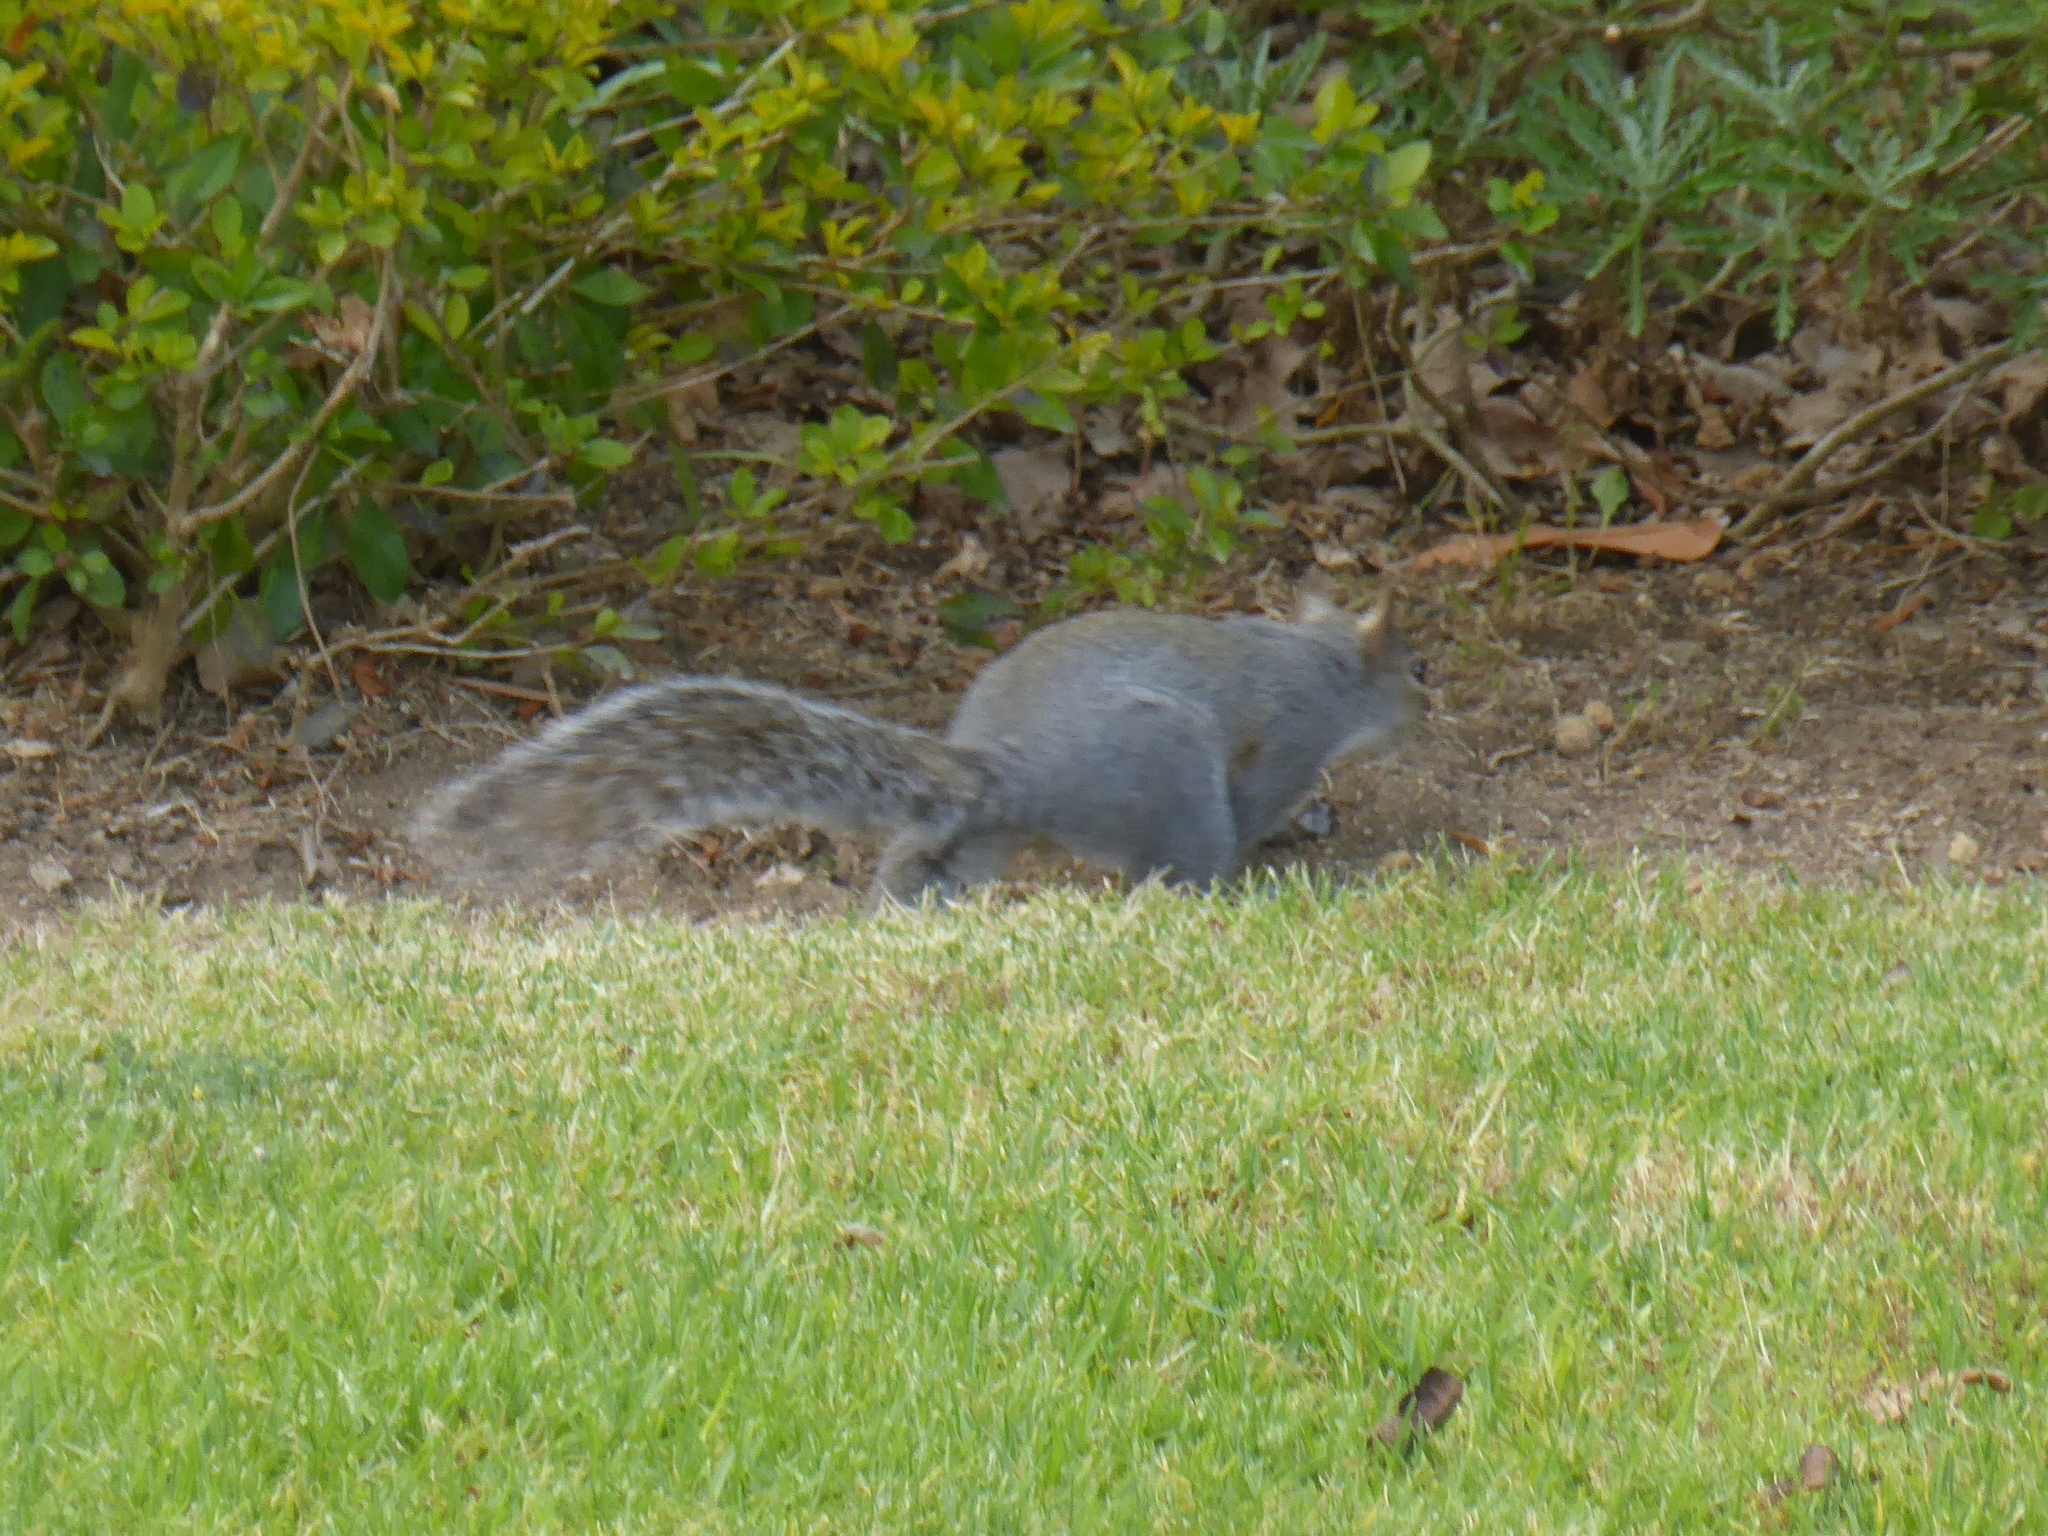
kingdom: Animalia
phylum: Chordata
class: Mammalia
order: Rodentia
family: Sciuridae
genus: Sciurus
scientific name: Sciurus carolinensis
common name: Eastern gray squirrel
